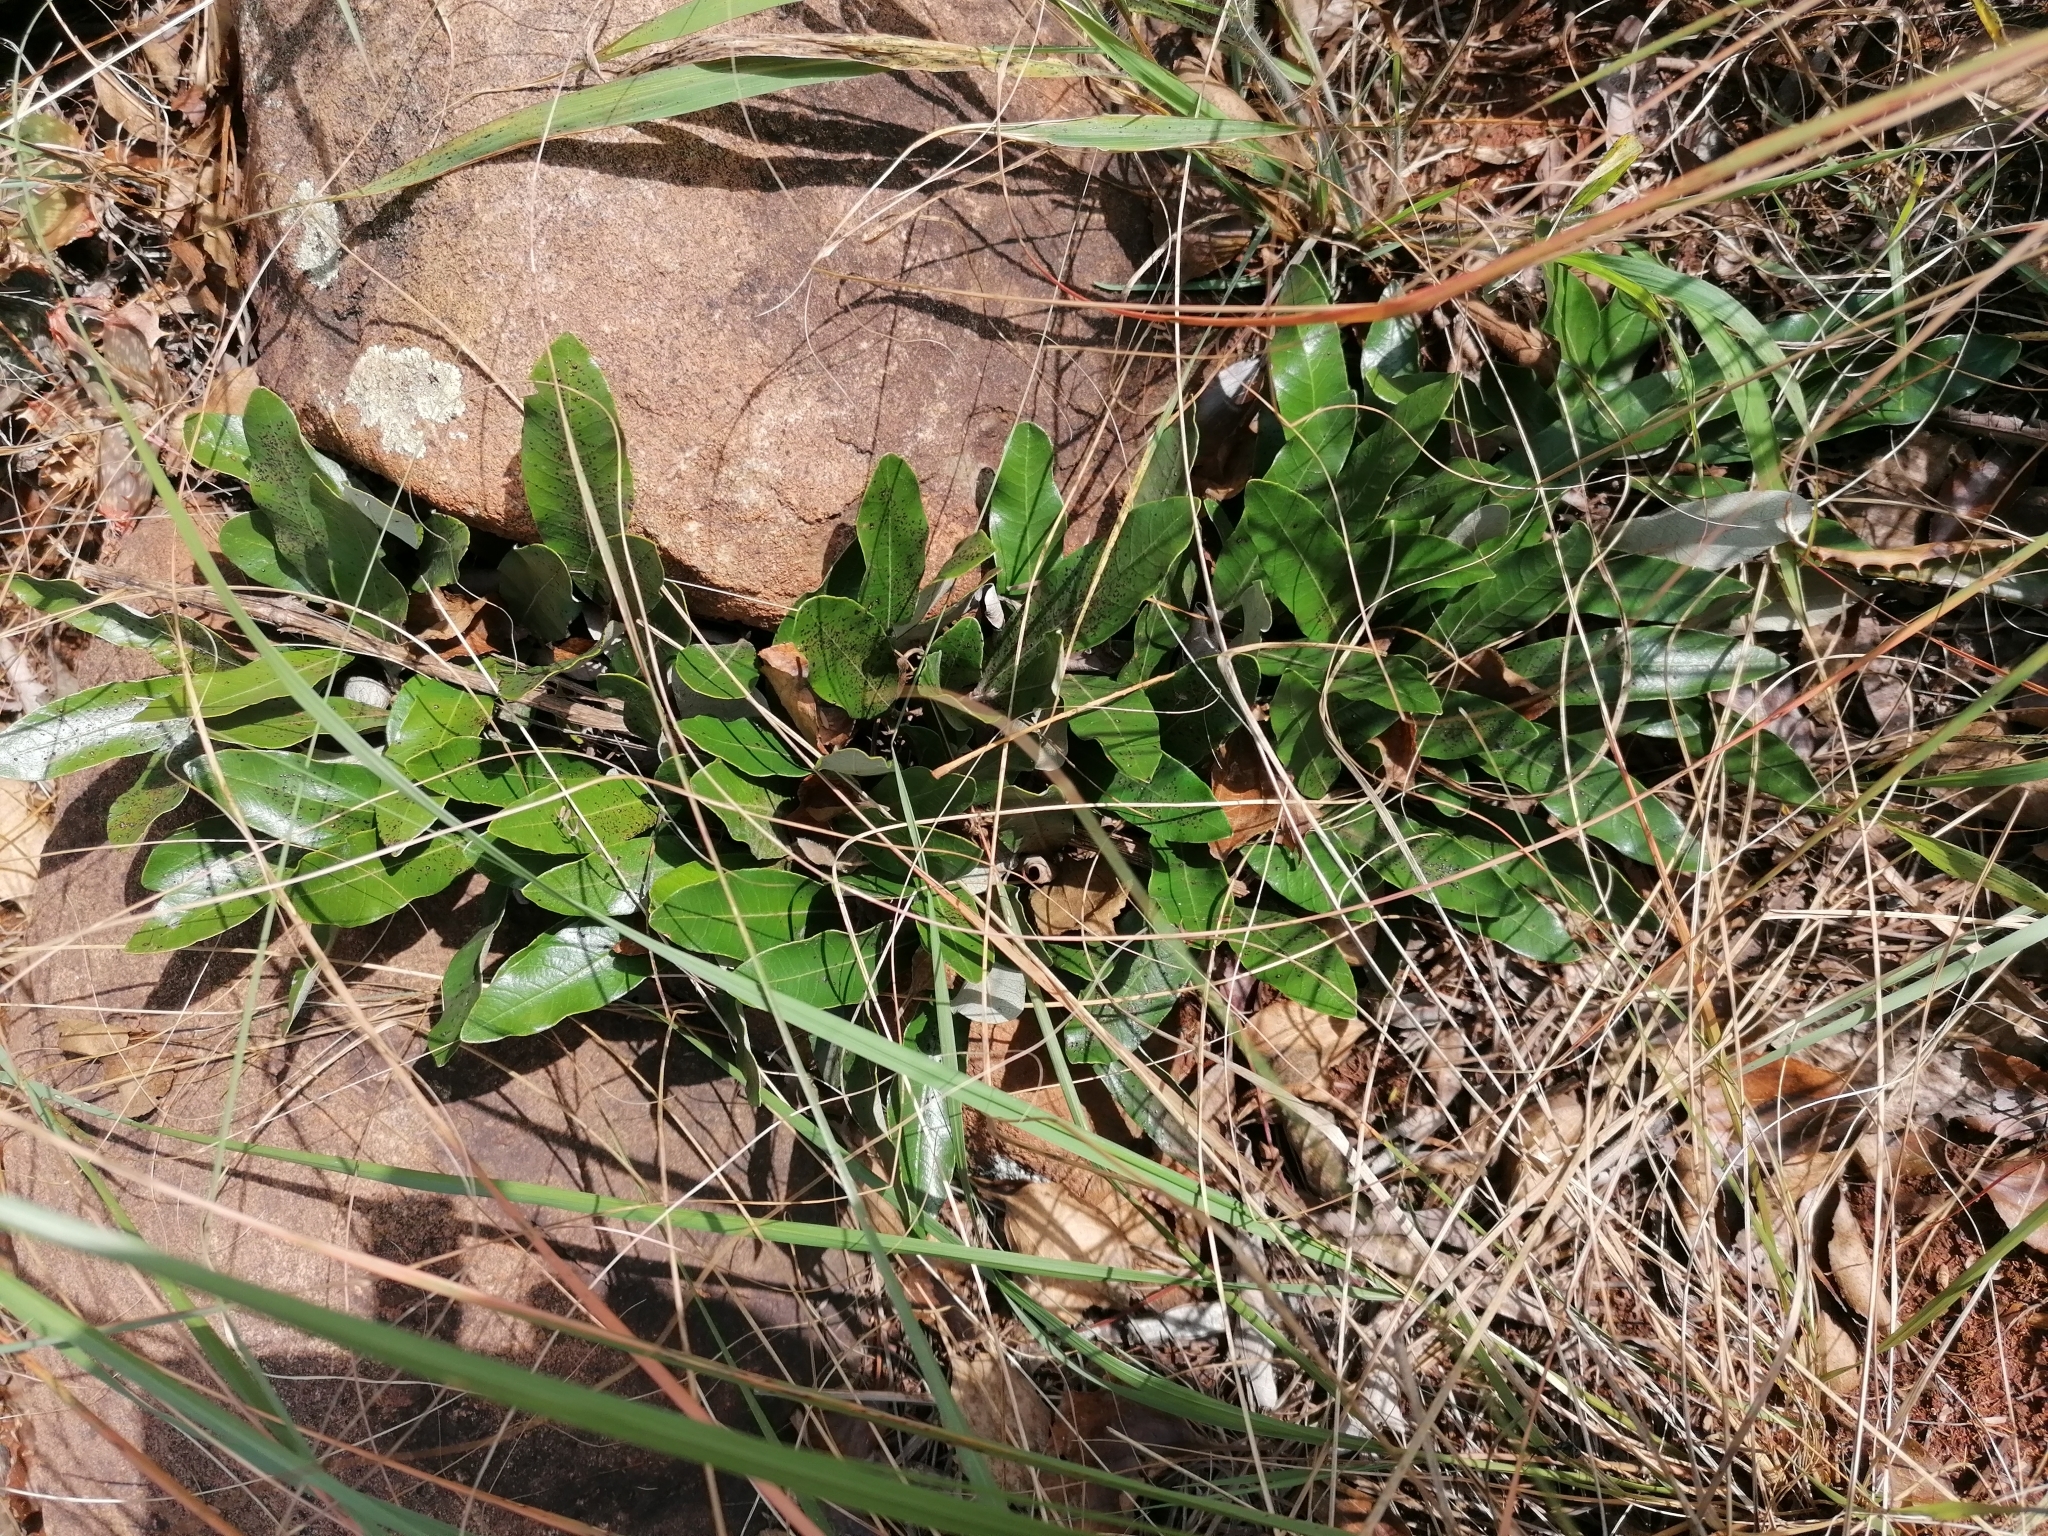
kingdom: Plantae
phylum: Tracheophyta
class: Magnoliopsida
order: Malpighiales
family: Chrysobalanaceae
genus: Parinari
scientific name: Parinari capensis
